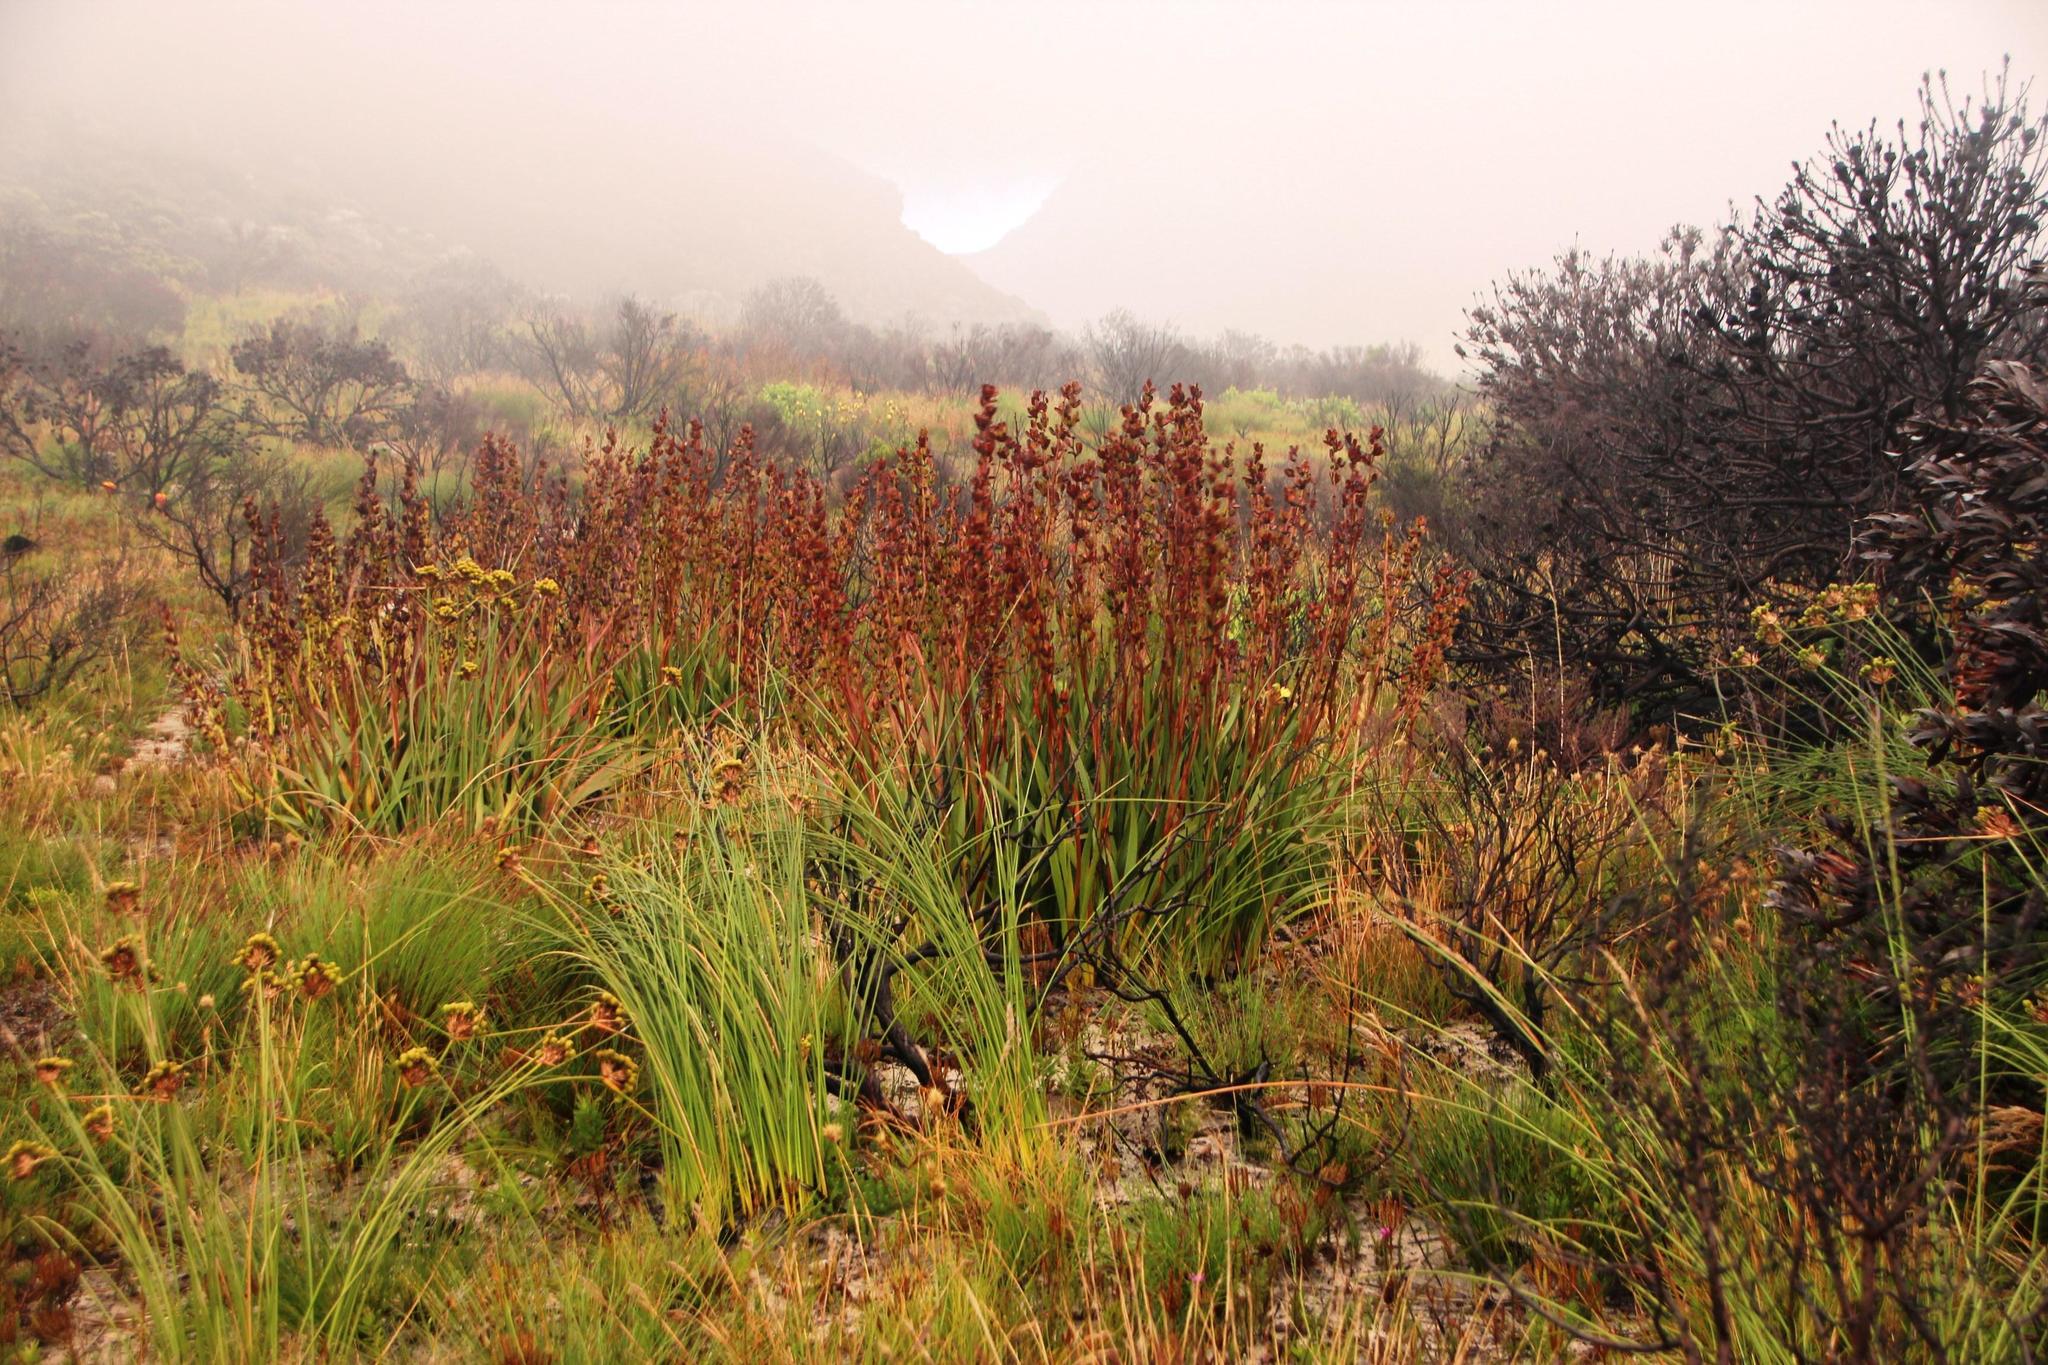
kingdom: Plantae
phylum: Tracheophyta
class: Liliopsida
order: Asparagales
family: Iridaceae
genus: Aristea
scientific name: Aristea bakeri
